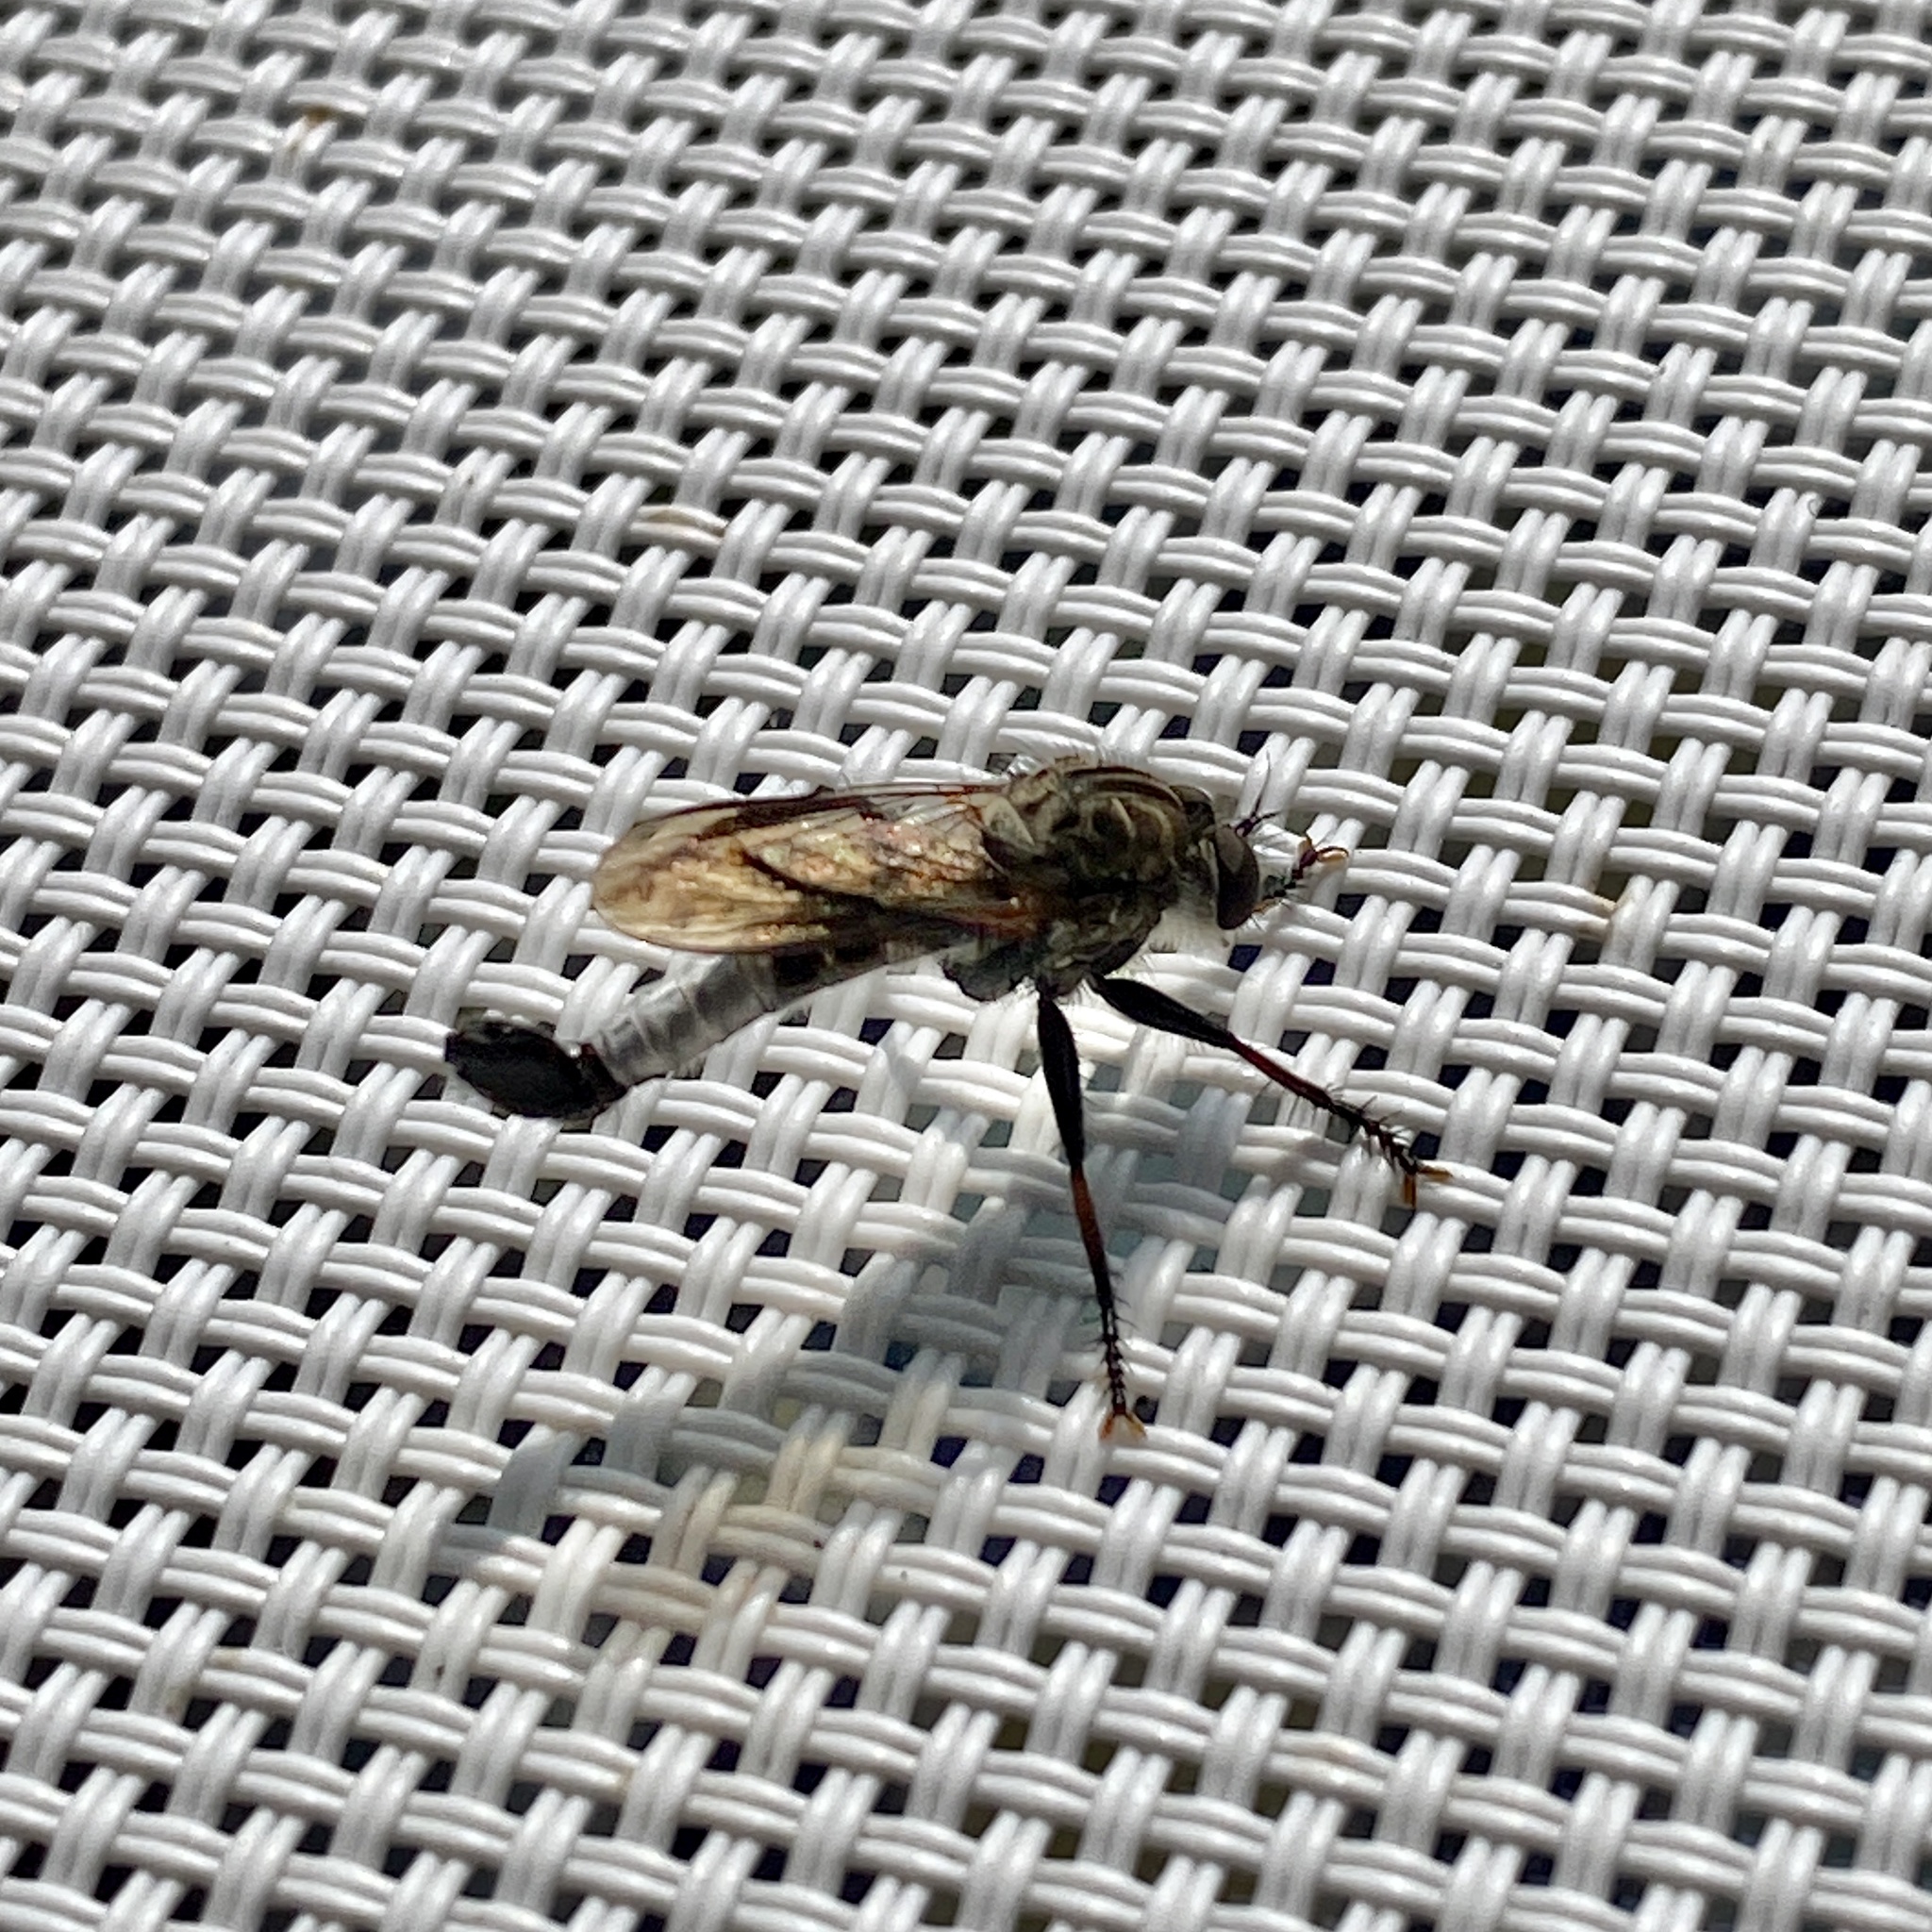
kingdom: Animalia
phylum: Arthropoda
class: Insecta
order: Diptera
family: Asilidae
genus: Efferia
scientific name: Efferia aestuans
